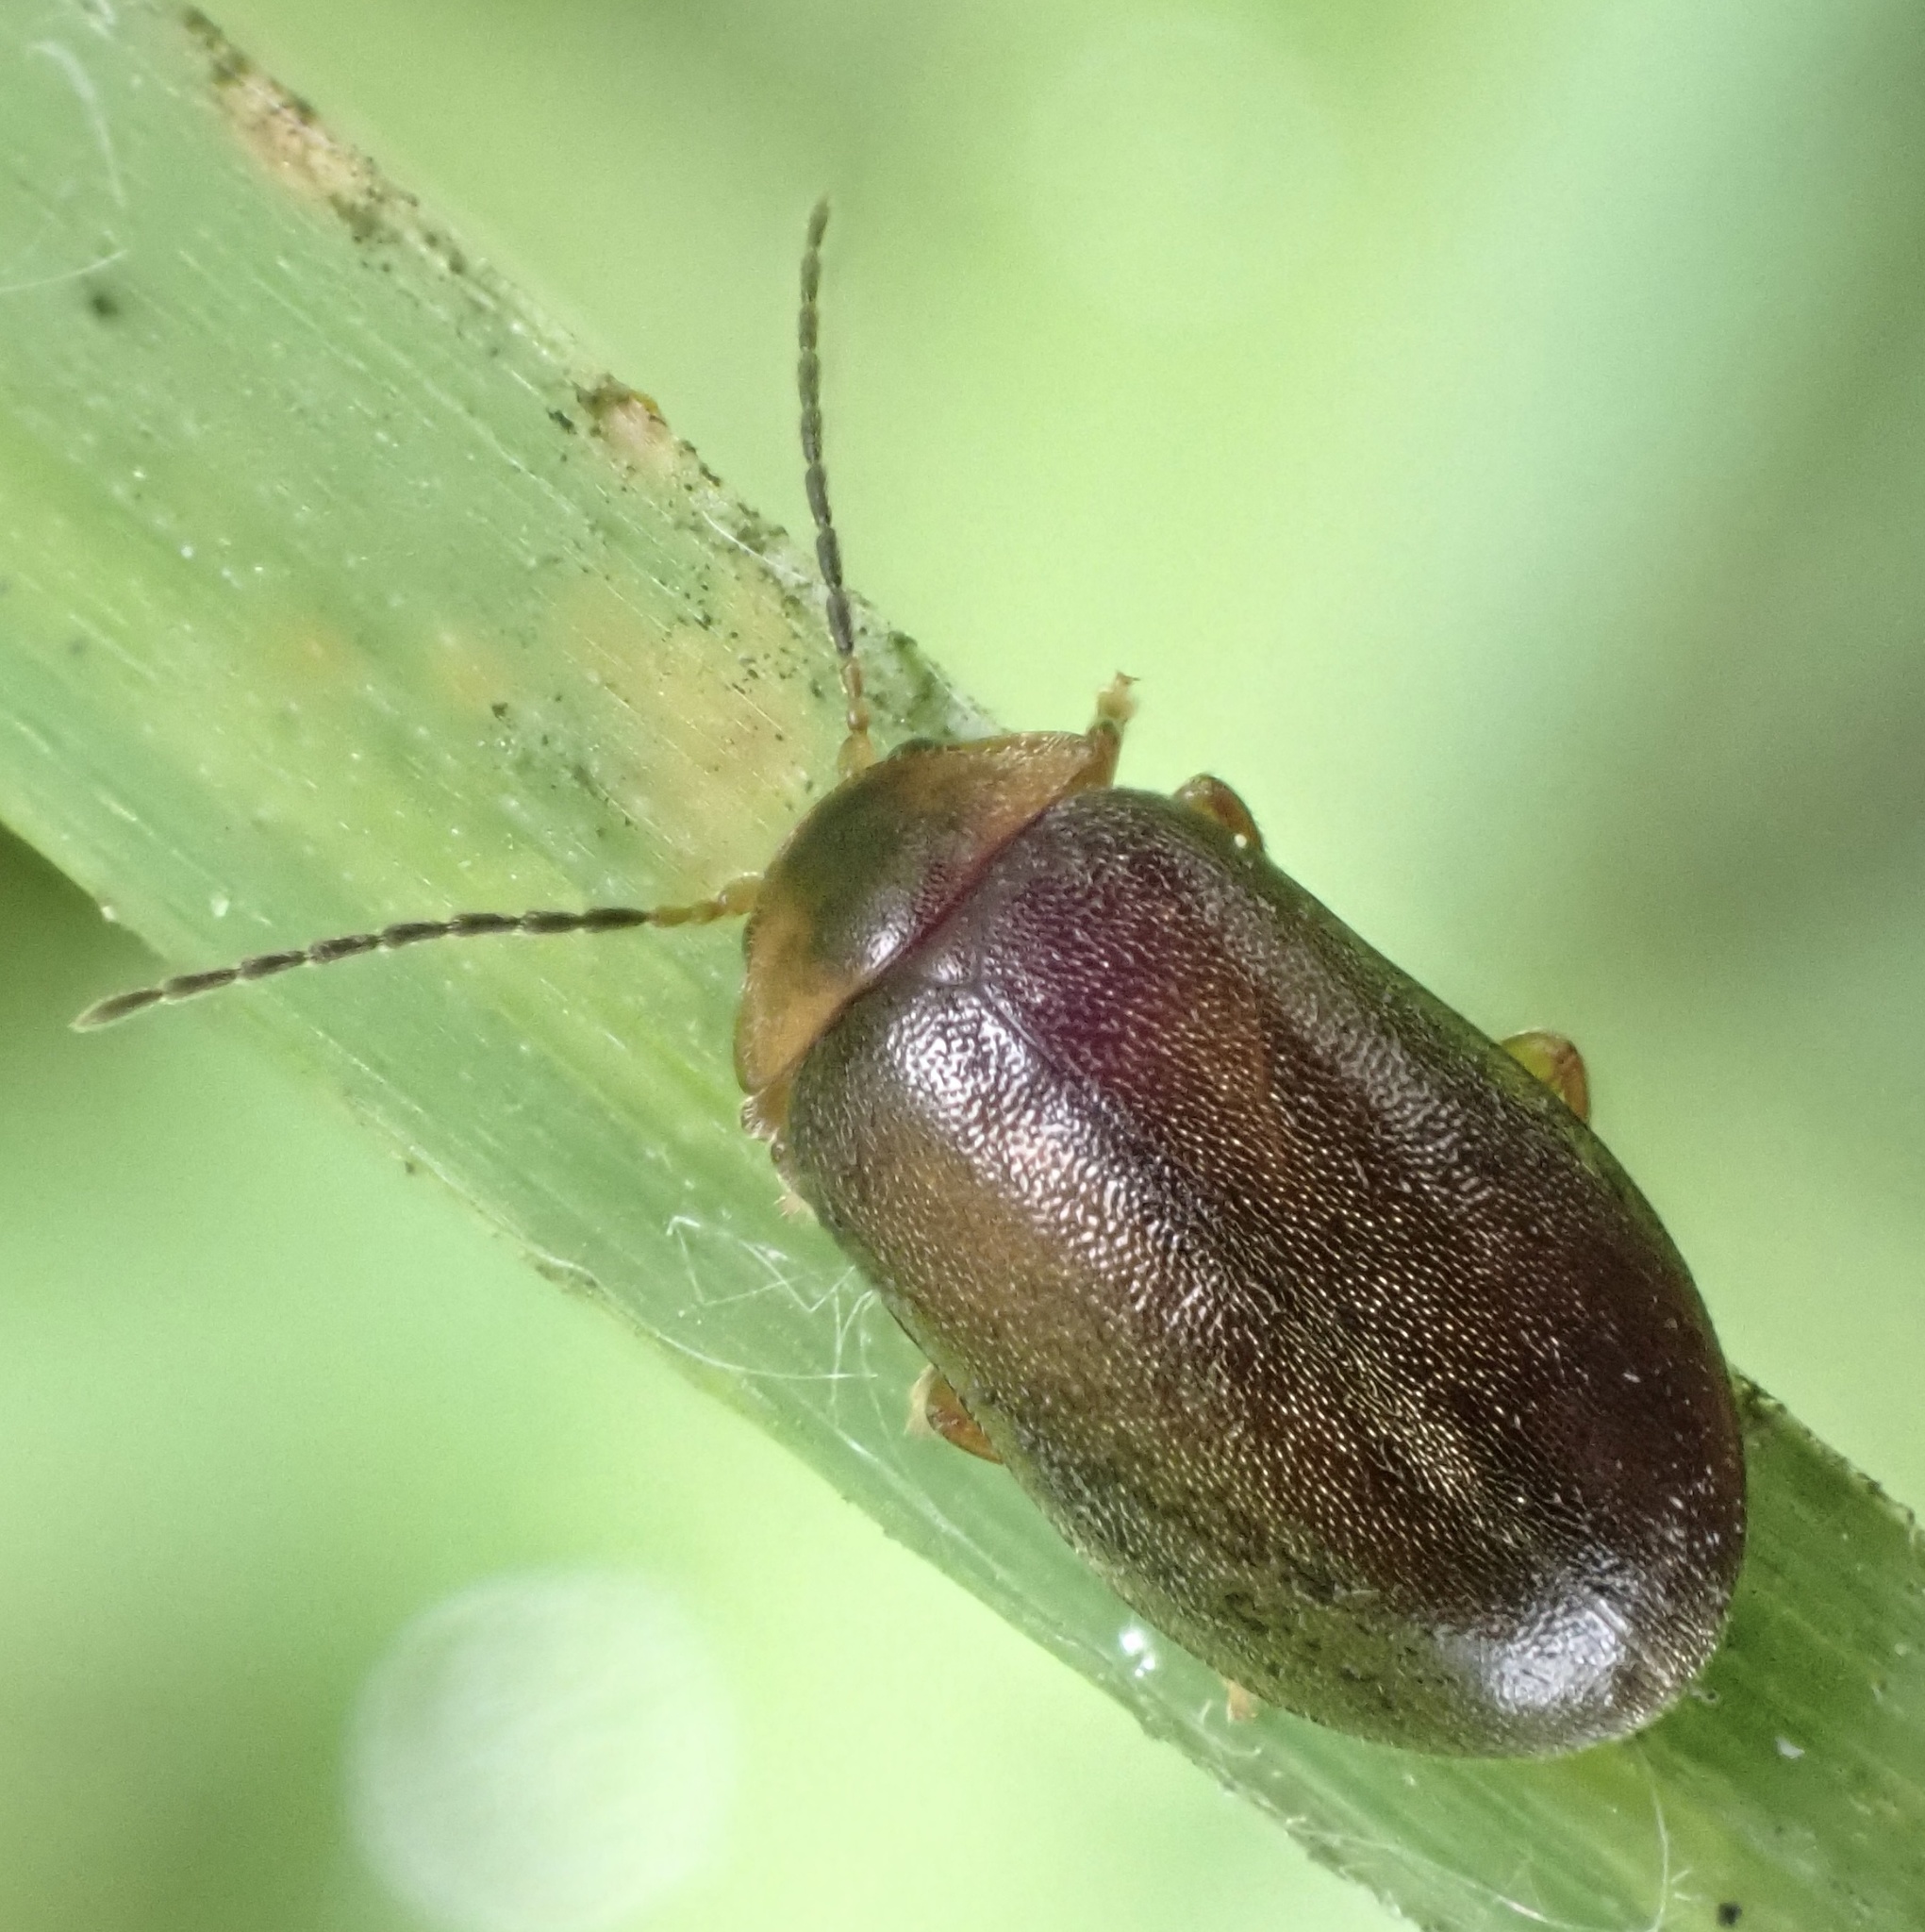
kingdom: Animalia
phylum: Arthropoda
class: Insecta
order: Coleoptera
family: Scirtidae
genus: Microcara
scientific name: Microcara testacea
